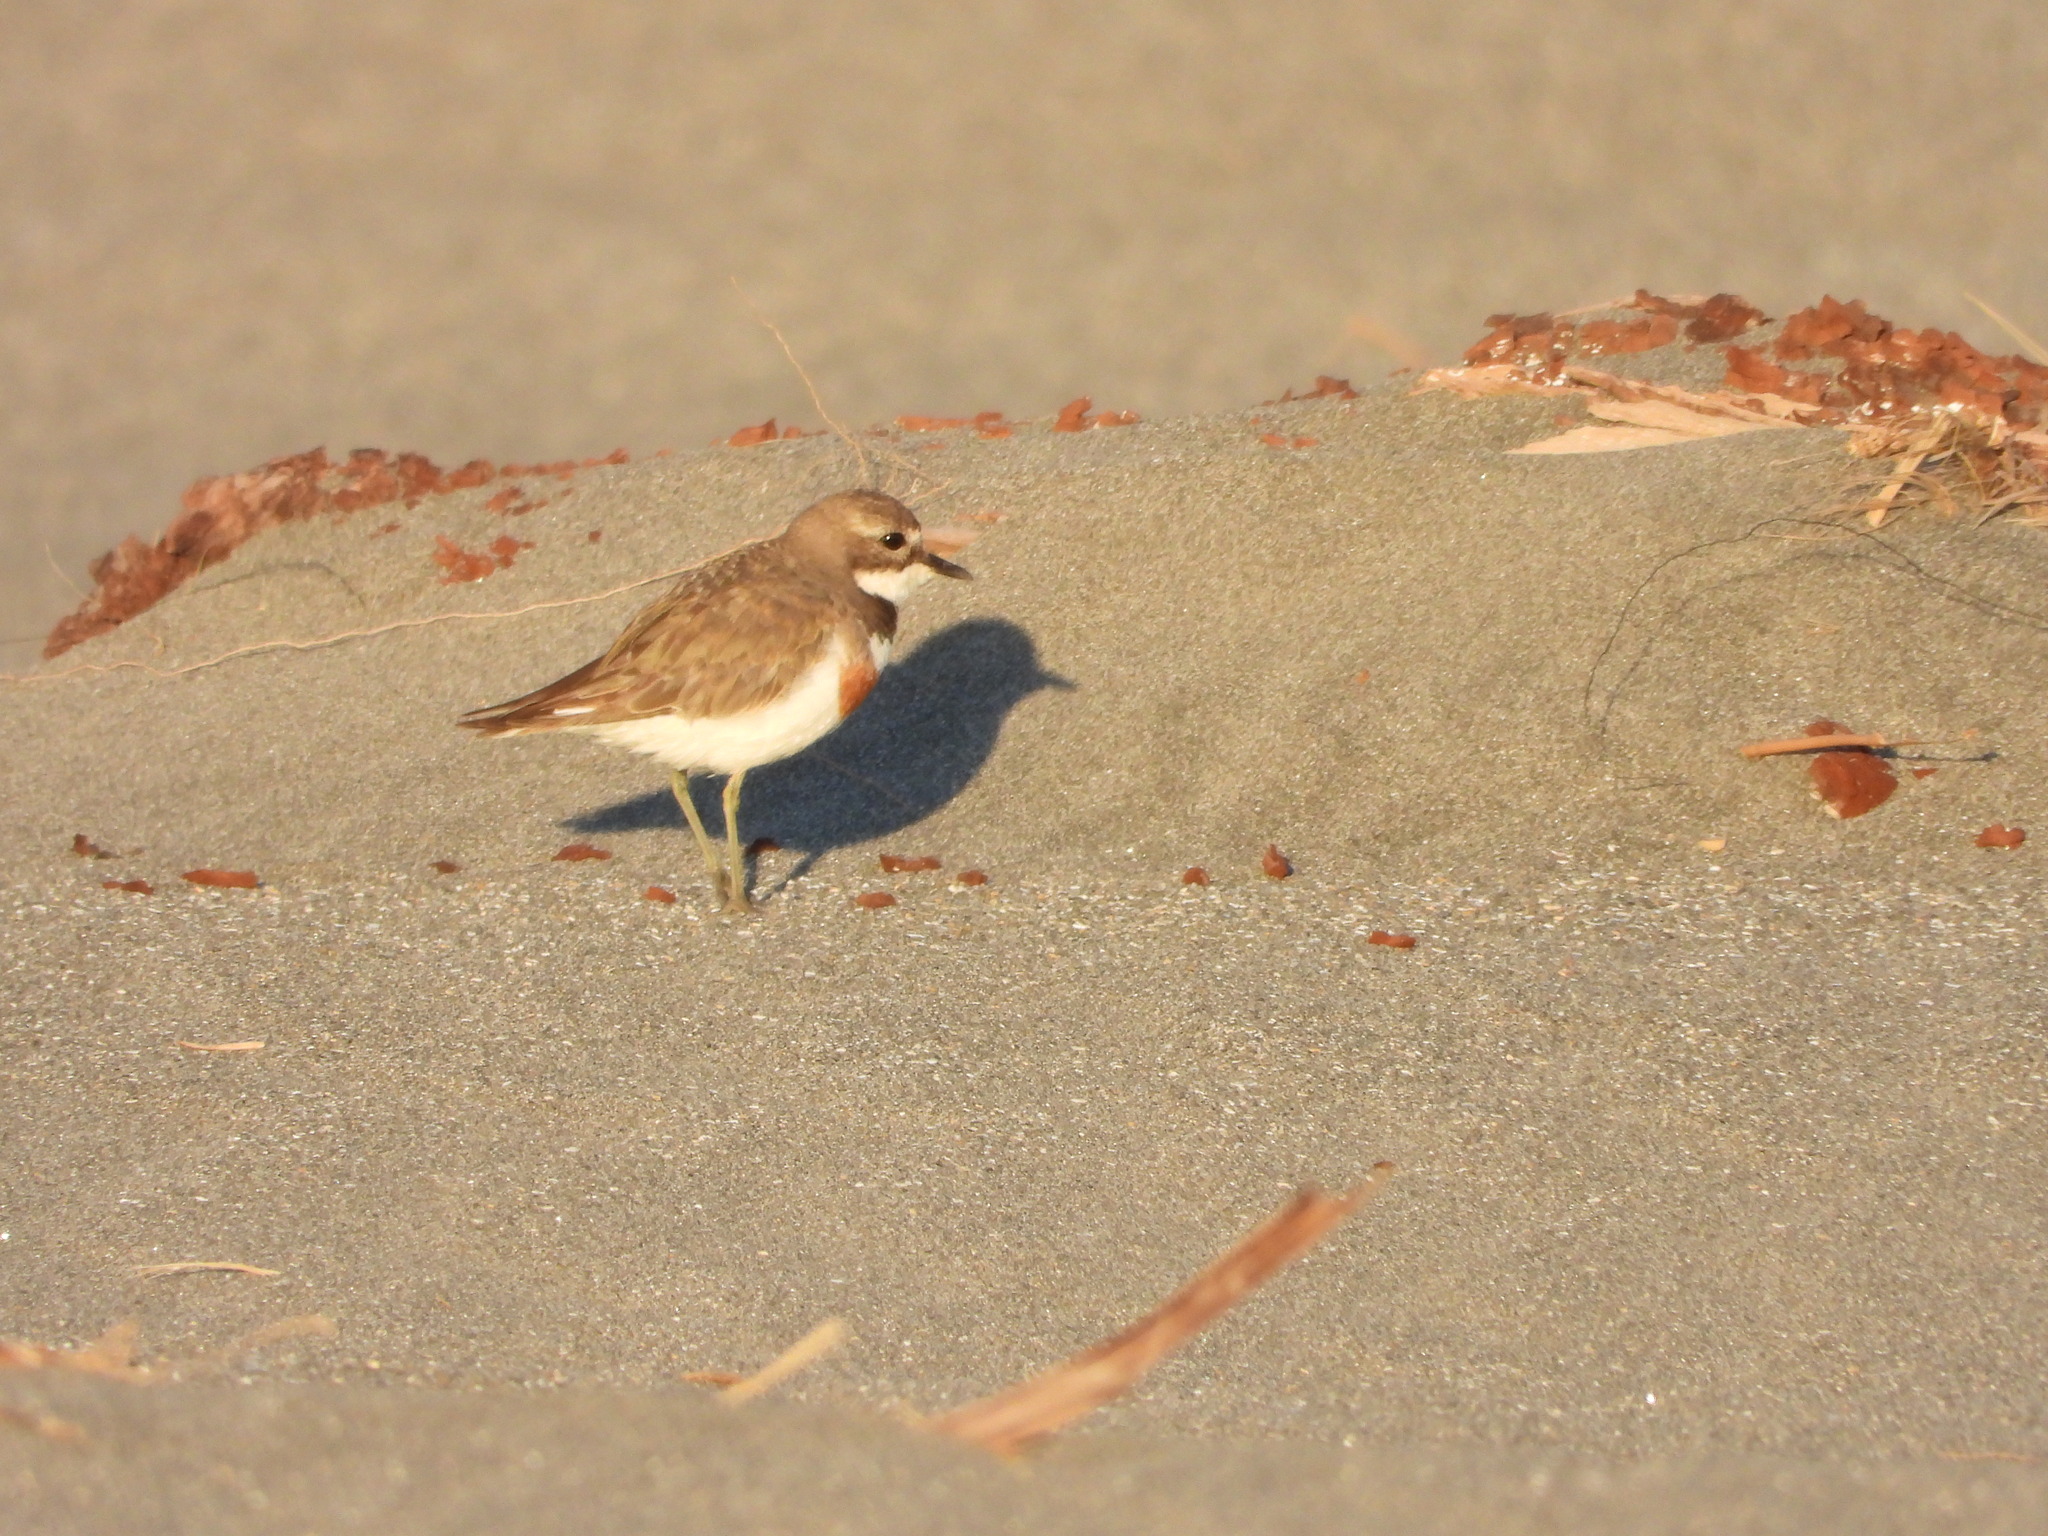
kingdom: Animalia
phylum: Chordata
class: Aves
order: Charadriiformes
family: Charadriidae
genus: Anarhynchus
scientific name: Anarhynchus
